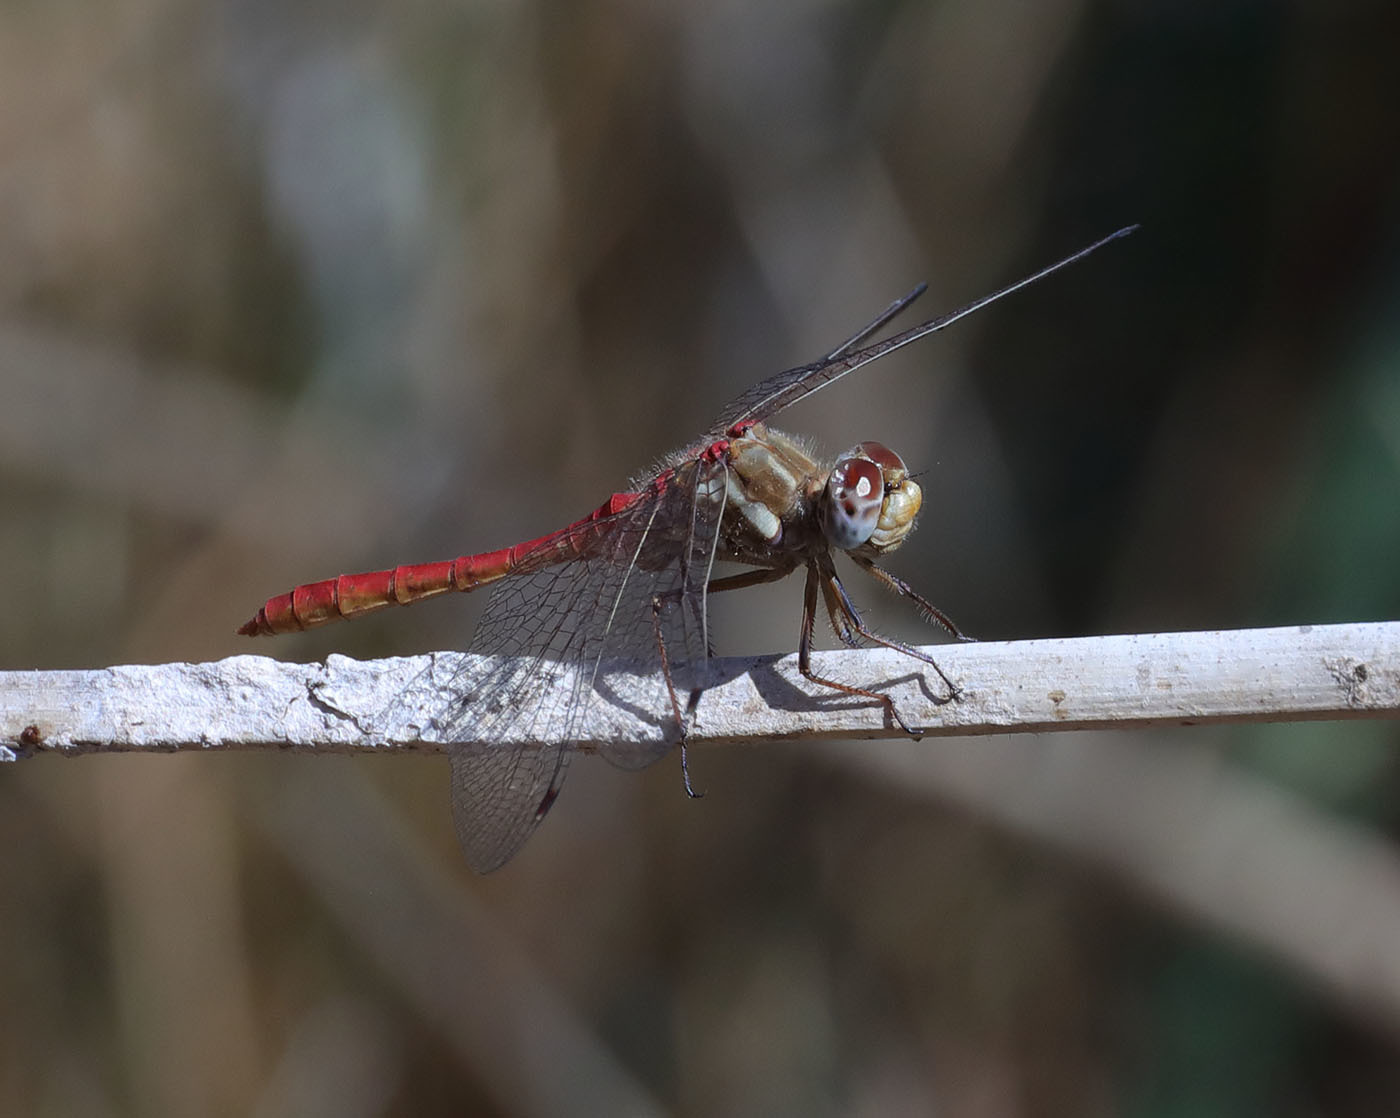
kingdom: Animalia
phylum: Arthropoda
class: Insecta
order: Odonata
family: Libellulidae
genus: Sympetrum
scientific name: Sympetrum pallipes
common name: Striped meadowhawk
